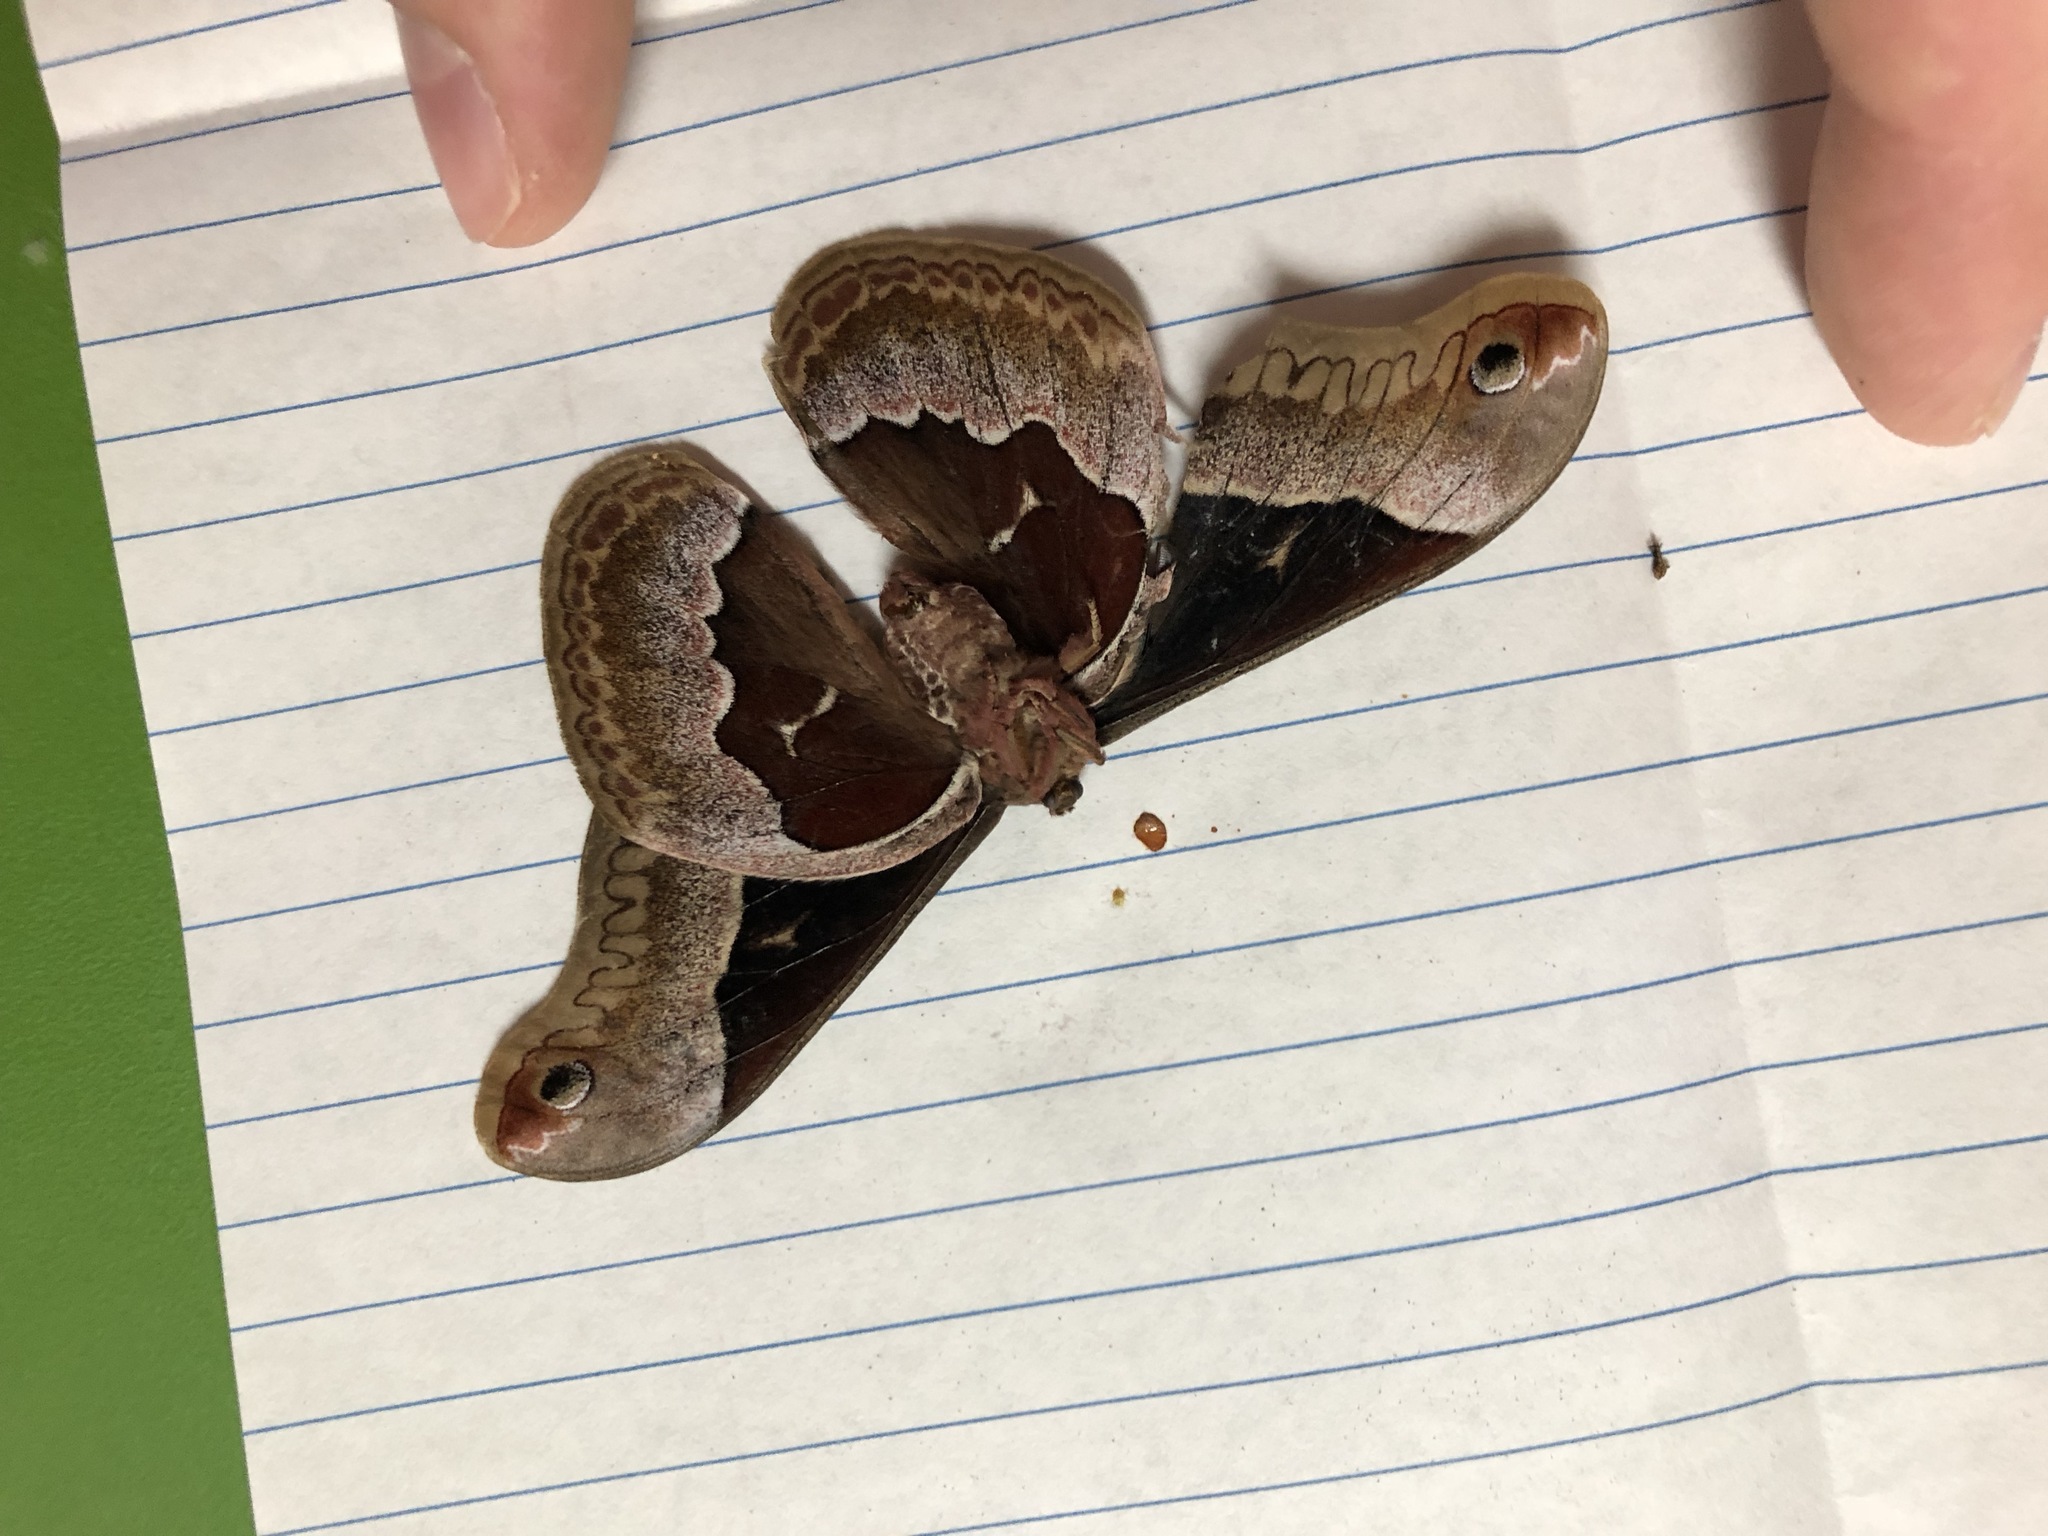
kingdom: Animalia
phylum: Arthropoda
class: Insecta
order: Lepidoptera
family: Saturniidae
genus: Callosamia
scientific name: Callosamia angulifera
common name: Tulip tree silkmoth
